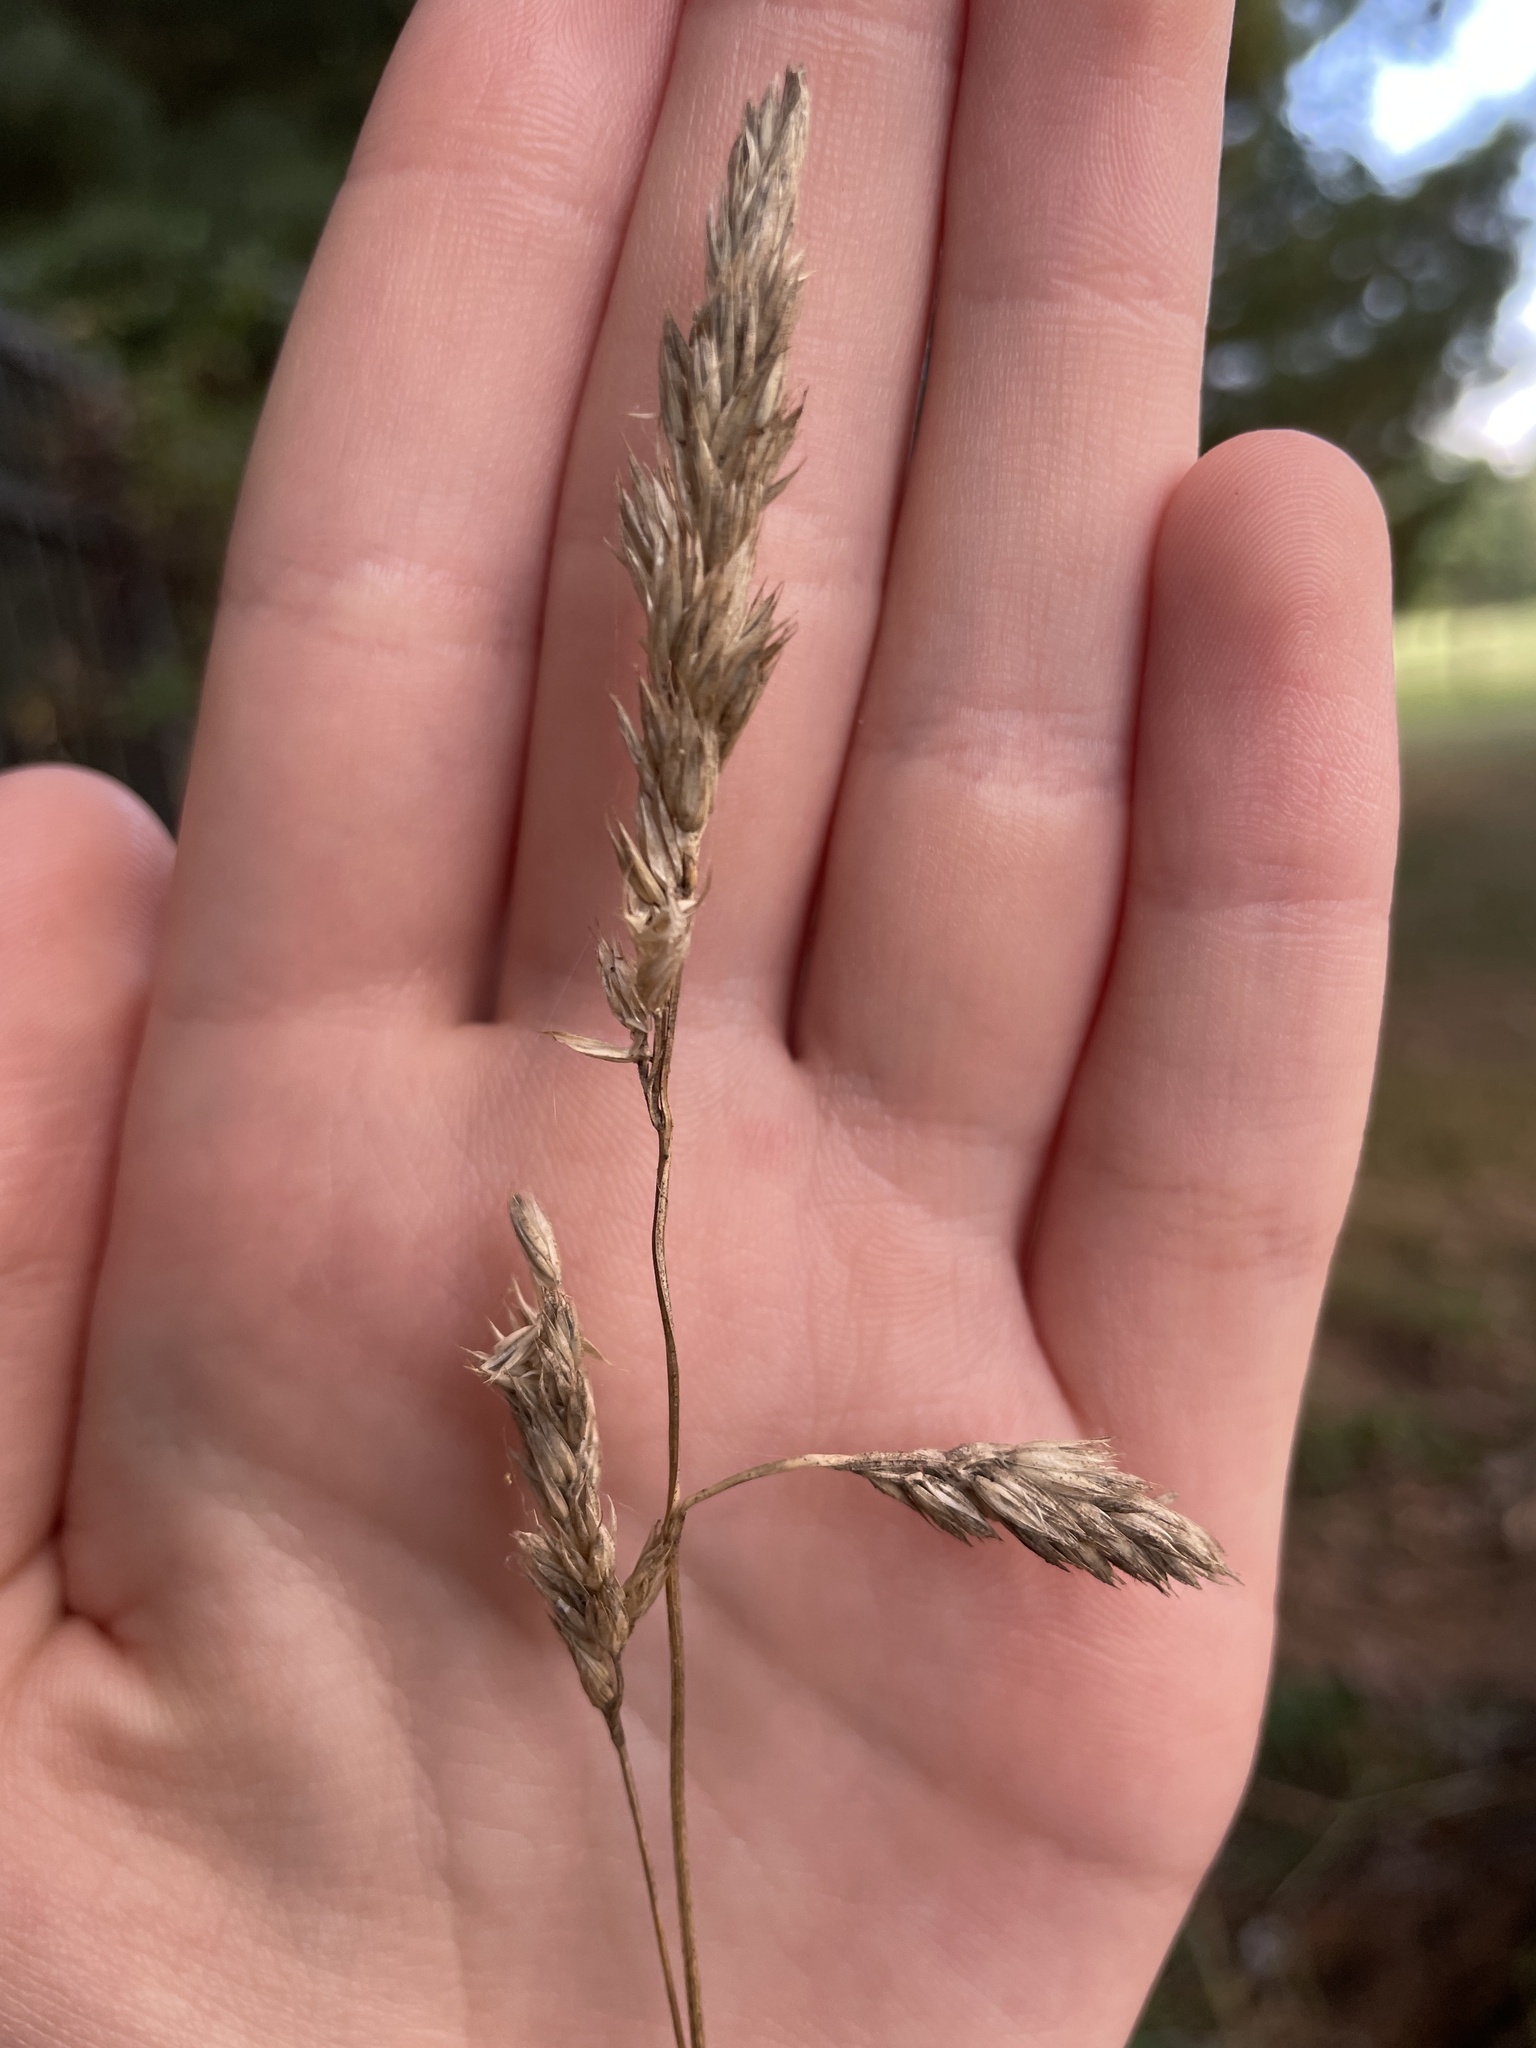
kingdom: Plantae
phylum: Tracheophyta
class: Liliopsida
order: Poales
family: Poaceae
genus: Dactylis
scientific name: Dactylis glomerata
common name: Orchardgrass
